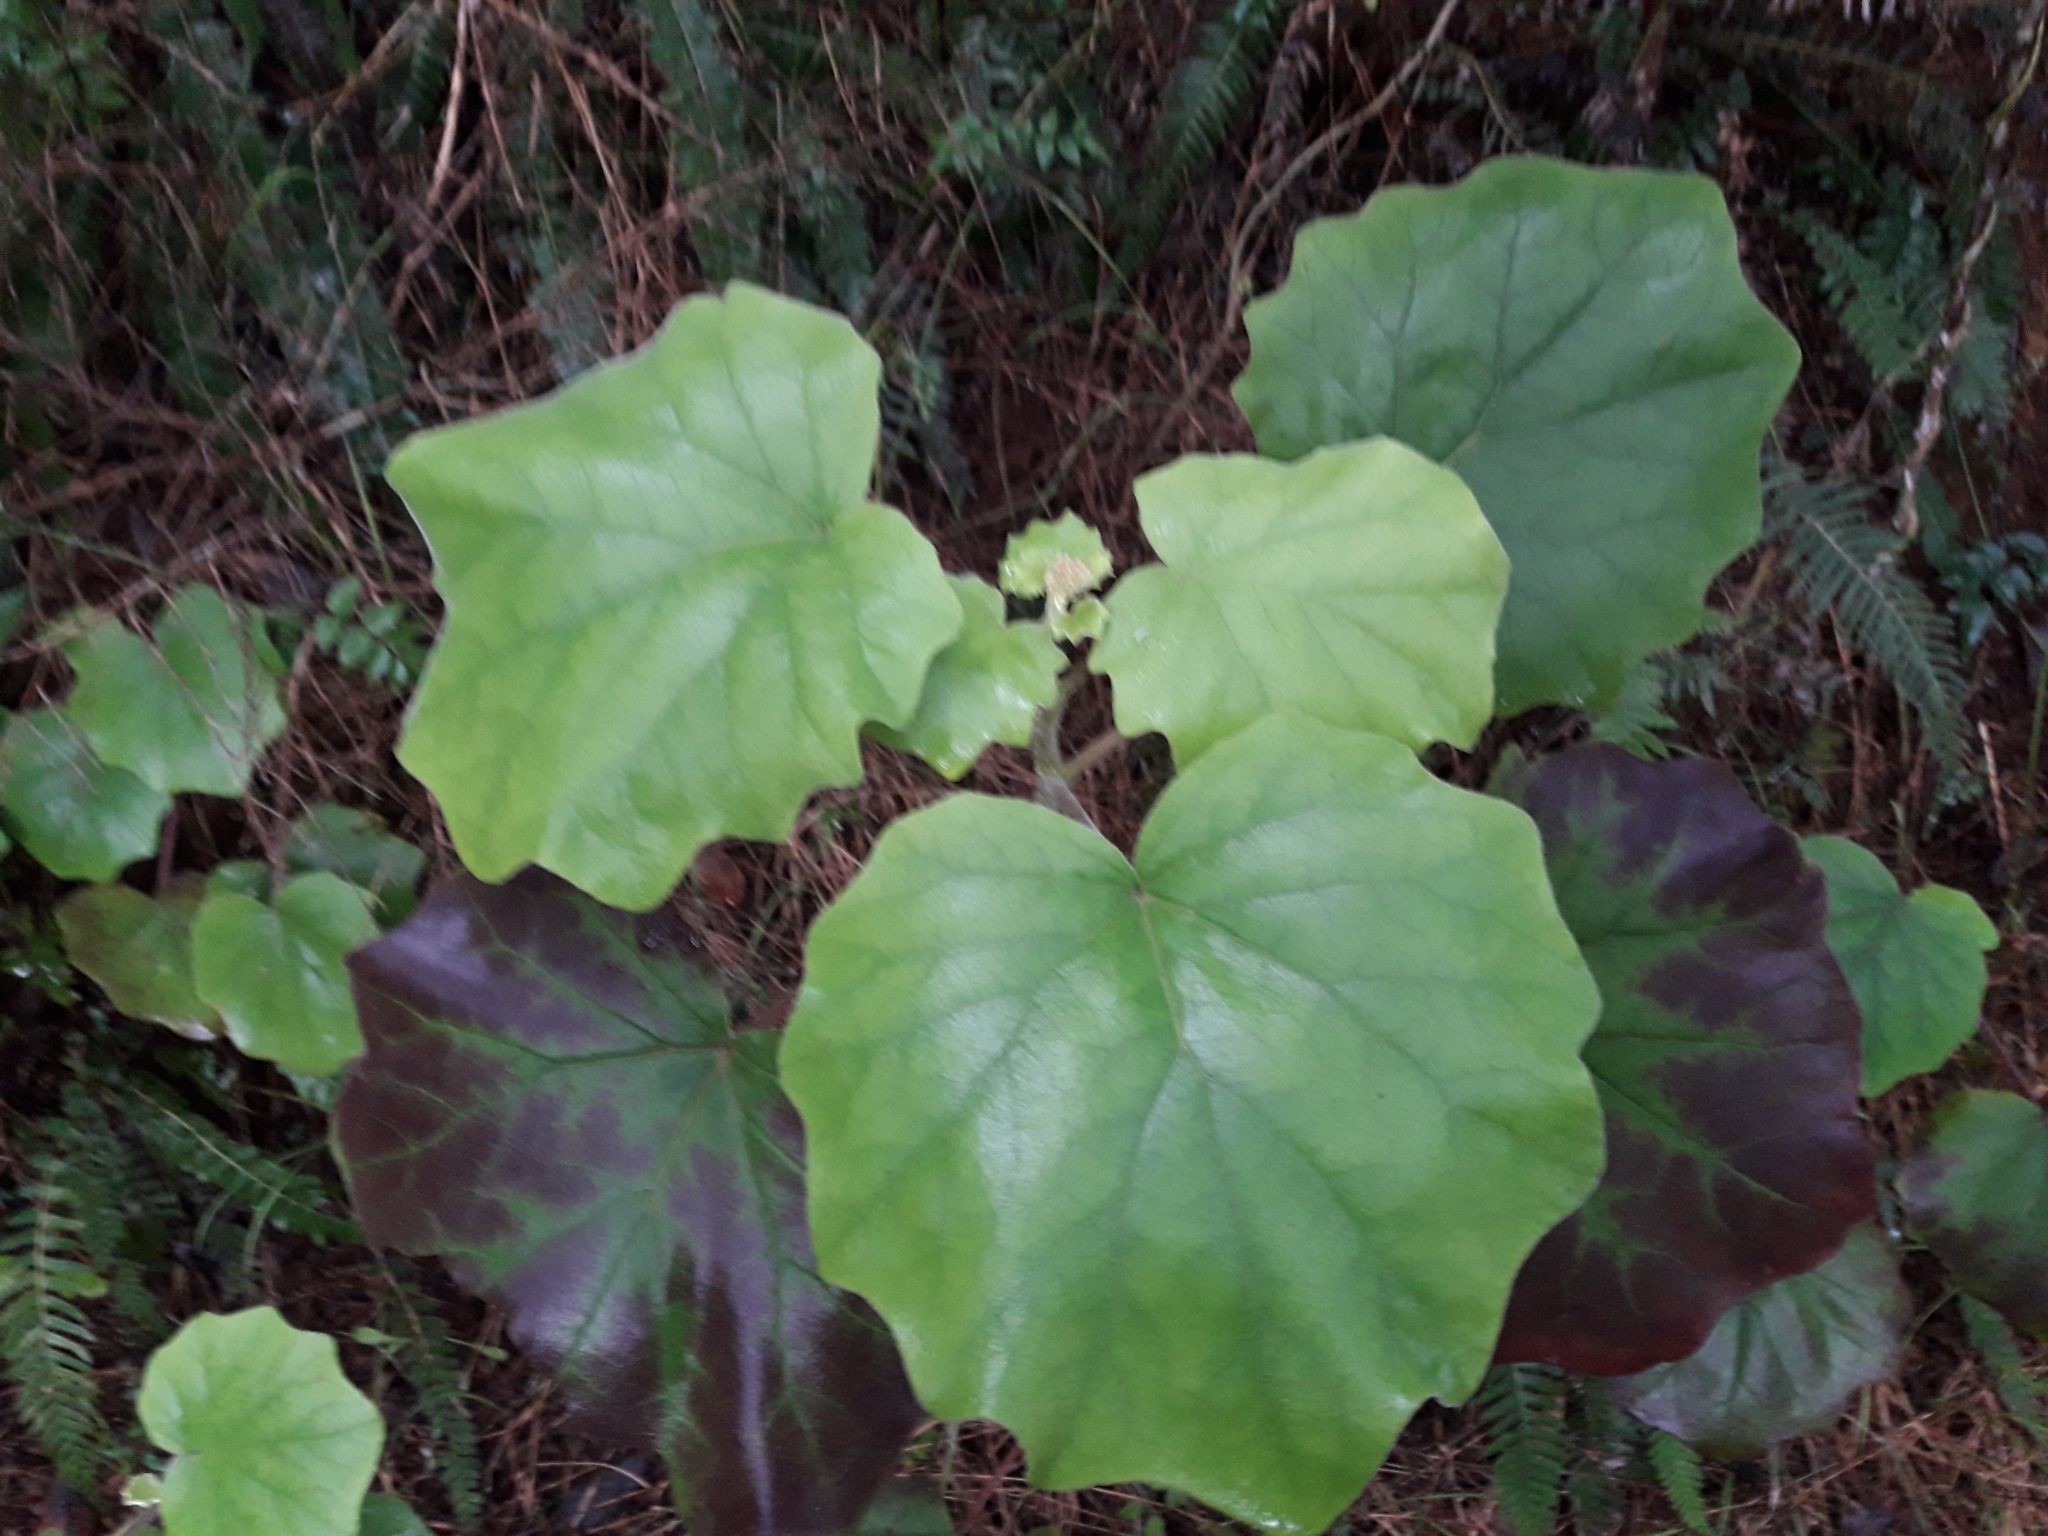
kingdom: Plantae
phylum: Tracheophyta
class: Magnoliopsida
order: Asterales
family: Asteraceae
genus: Roldana
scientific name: Roldana petasitis
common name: California-geranium
